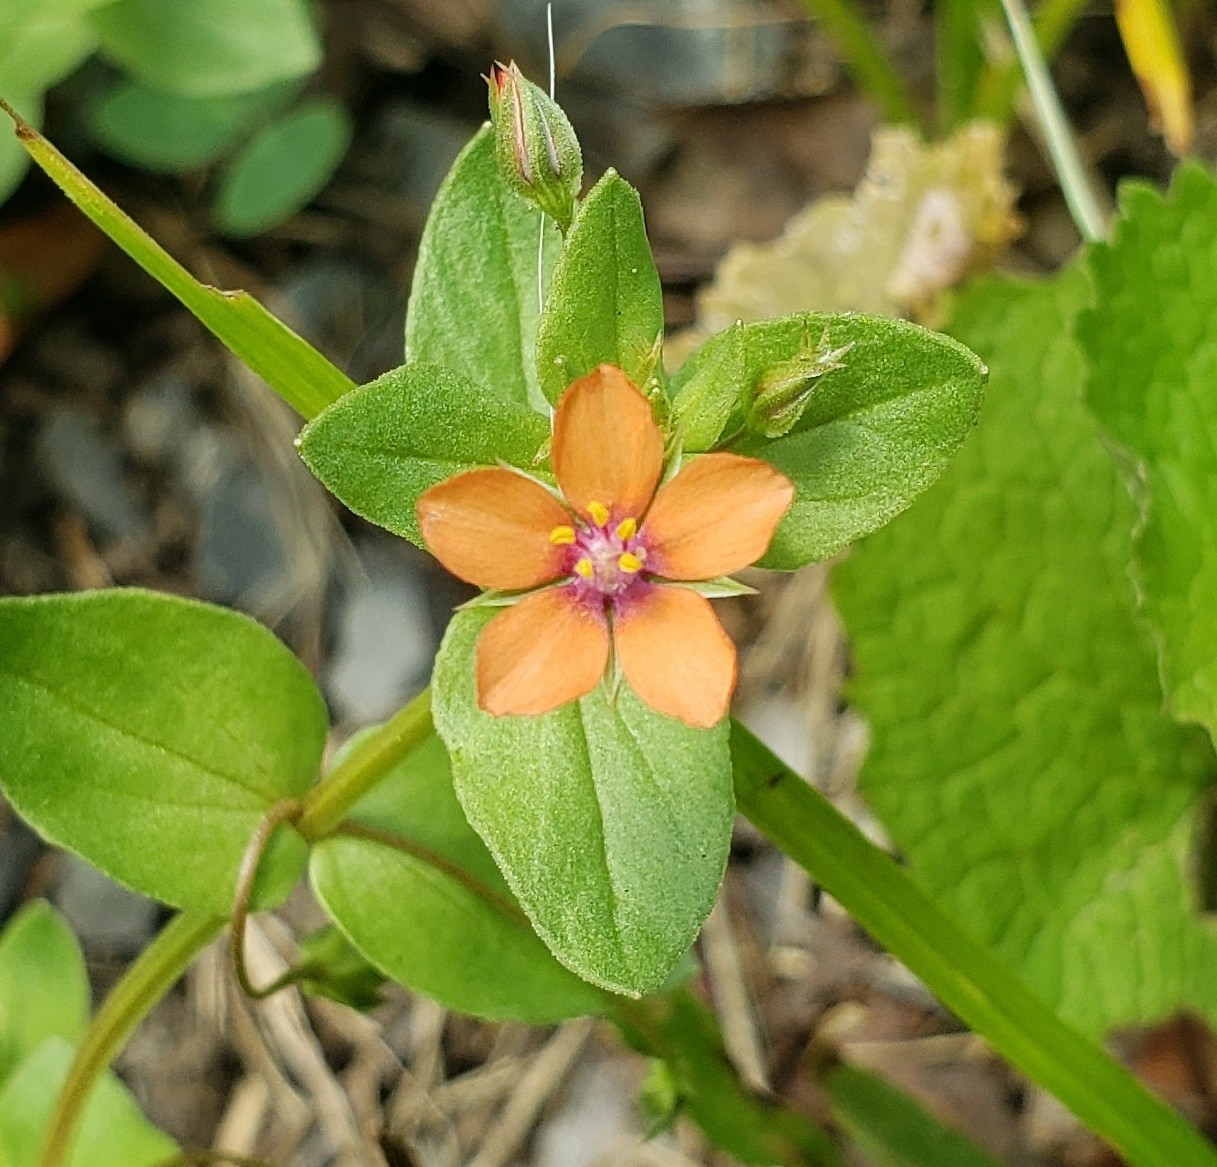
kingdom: Plantae
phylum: Tracheophyta
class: Magnoliopsida
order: Ericales
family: Primulaceae
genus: Lysimachia
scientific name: Lysimachia arvensis
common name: Scarlet pimpernel
